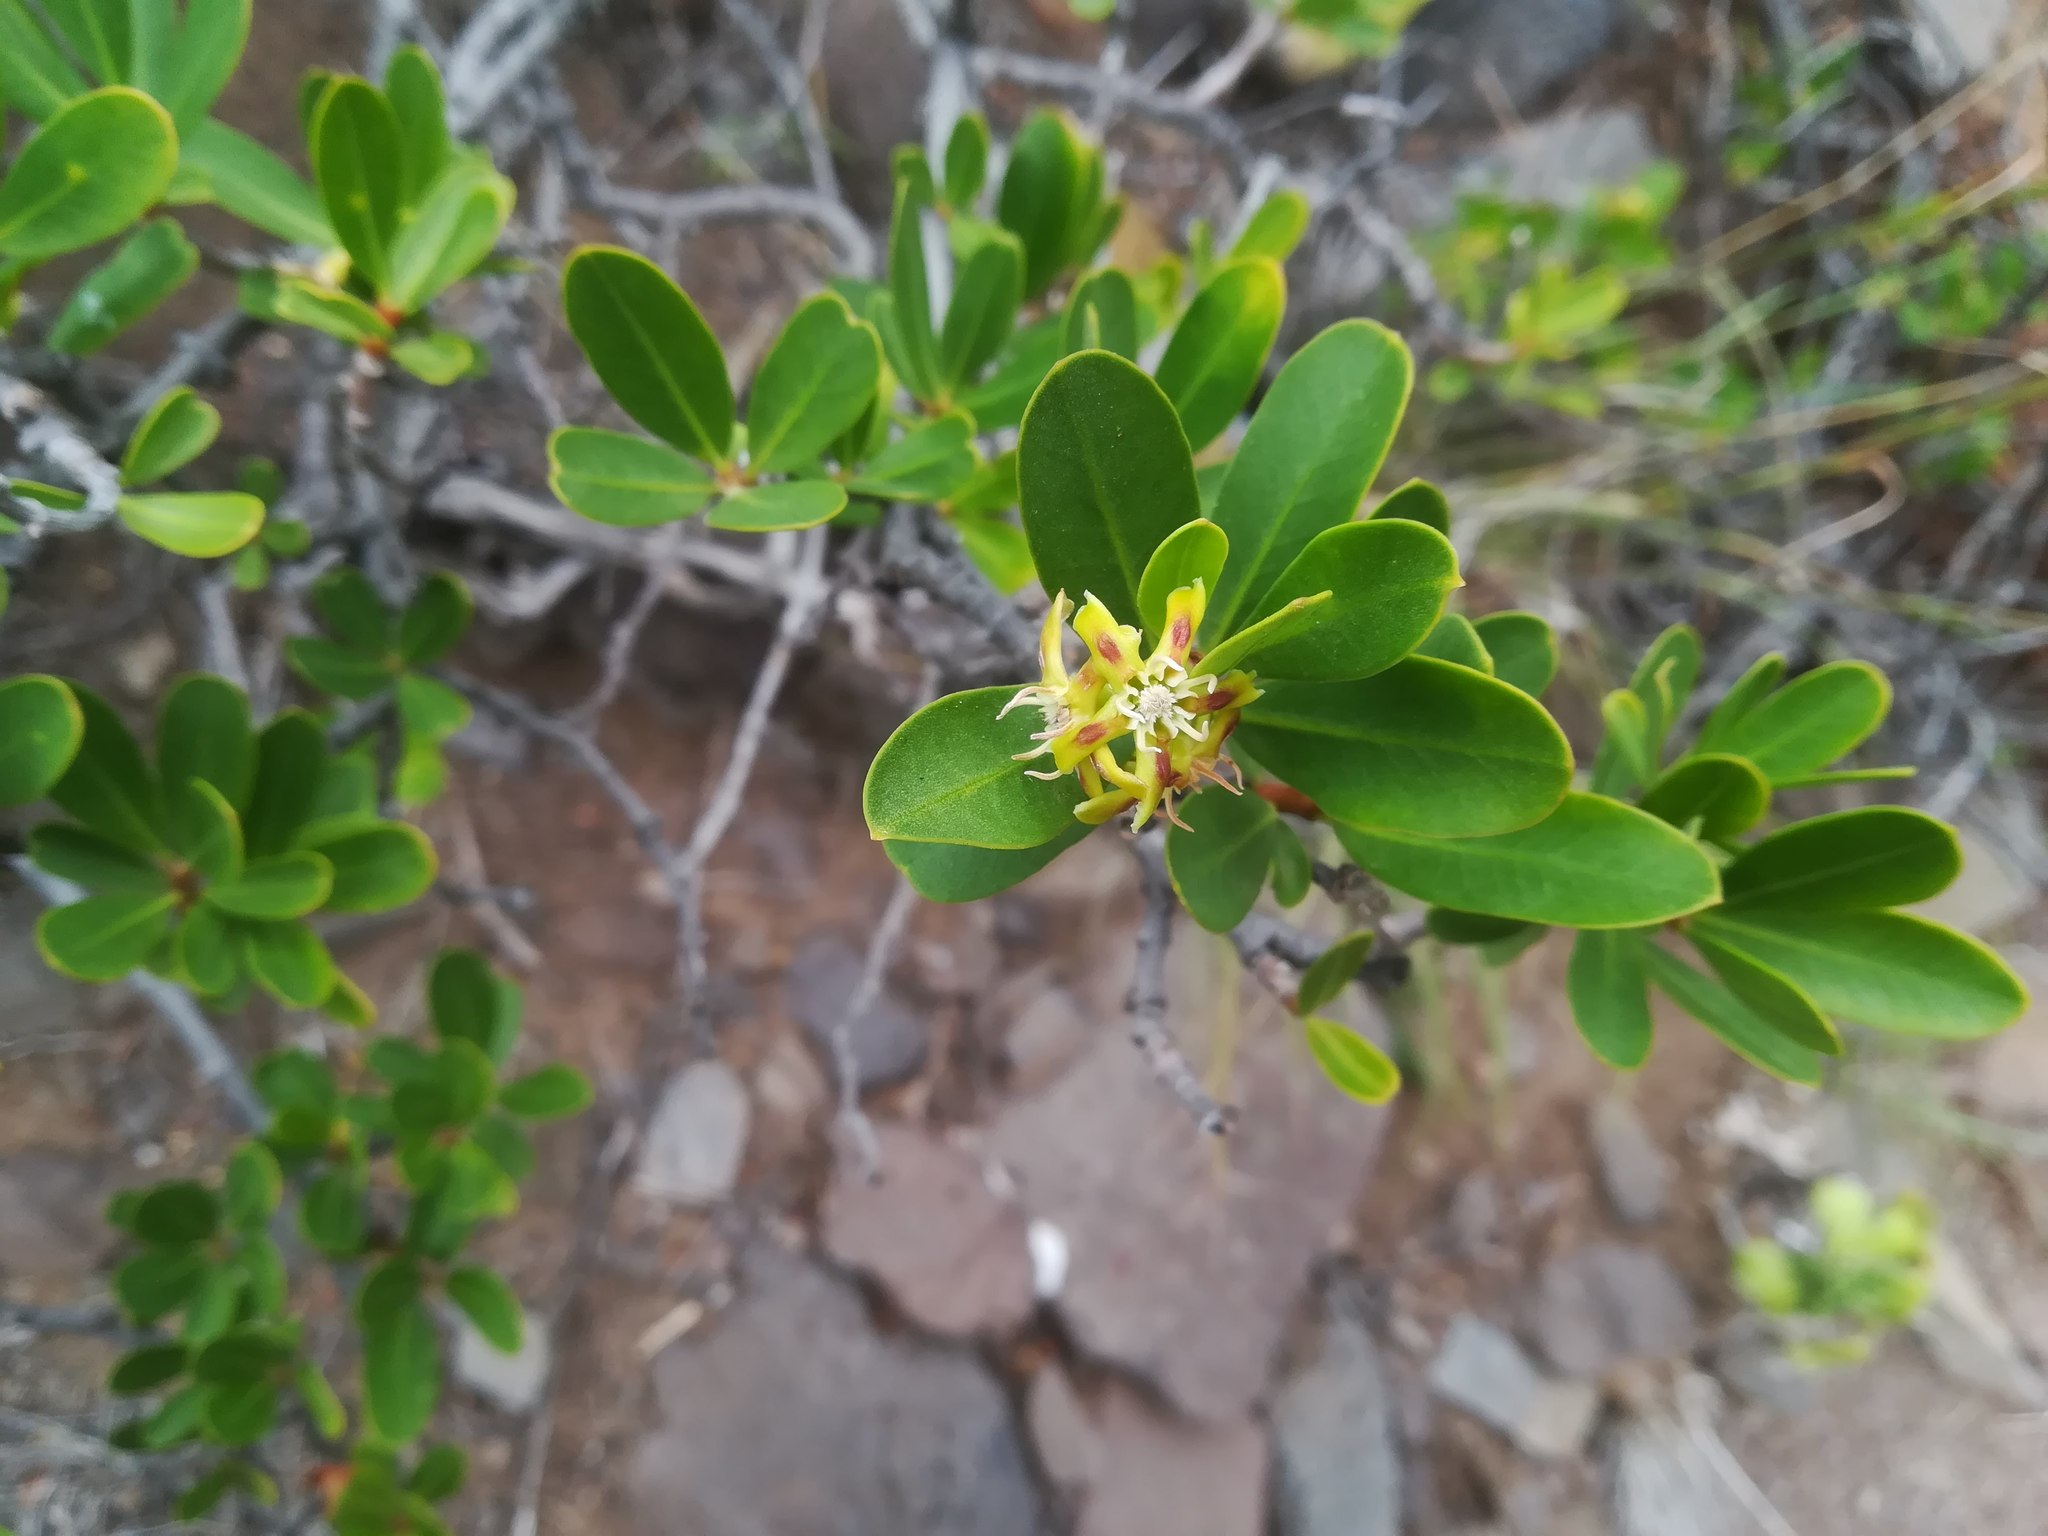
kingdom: Plantae
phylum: Tracheophyta
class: Magnoliopsida
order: Gentianales
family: Apocynaceae
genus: Periploca
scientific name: Periploca laevigata
